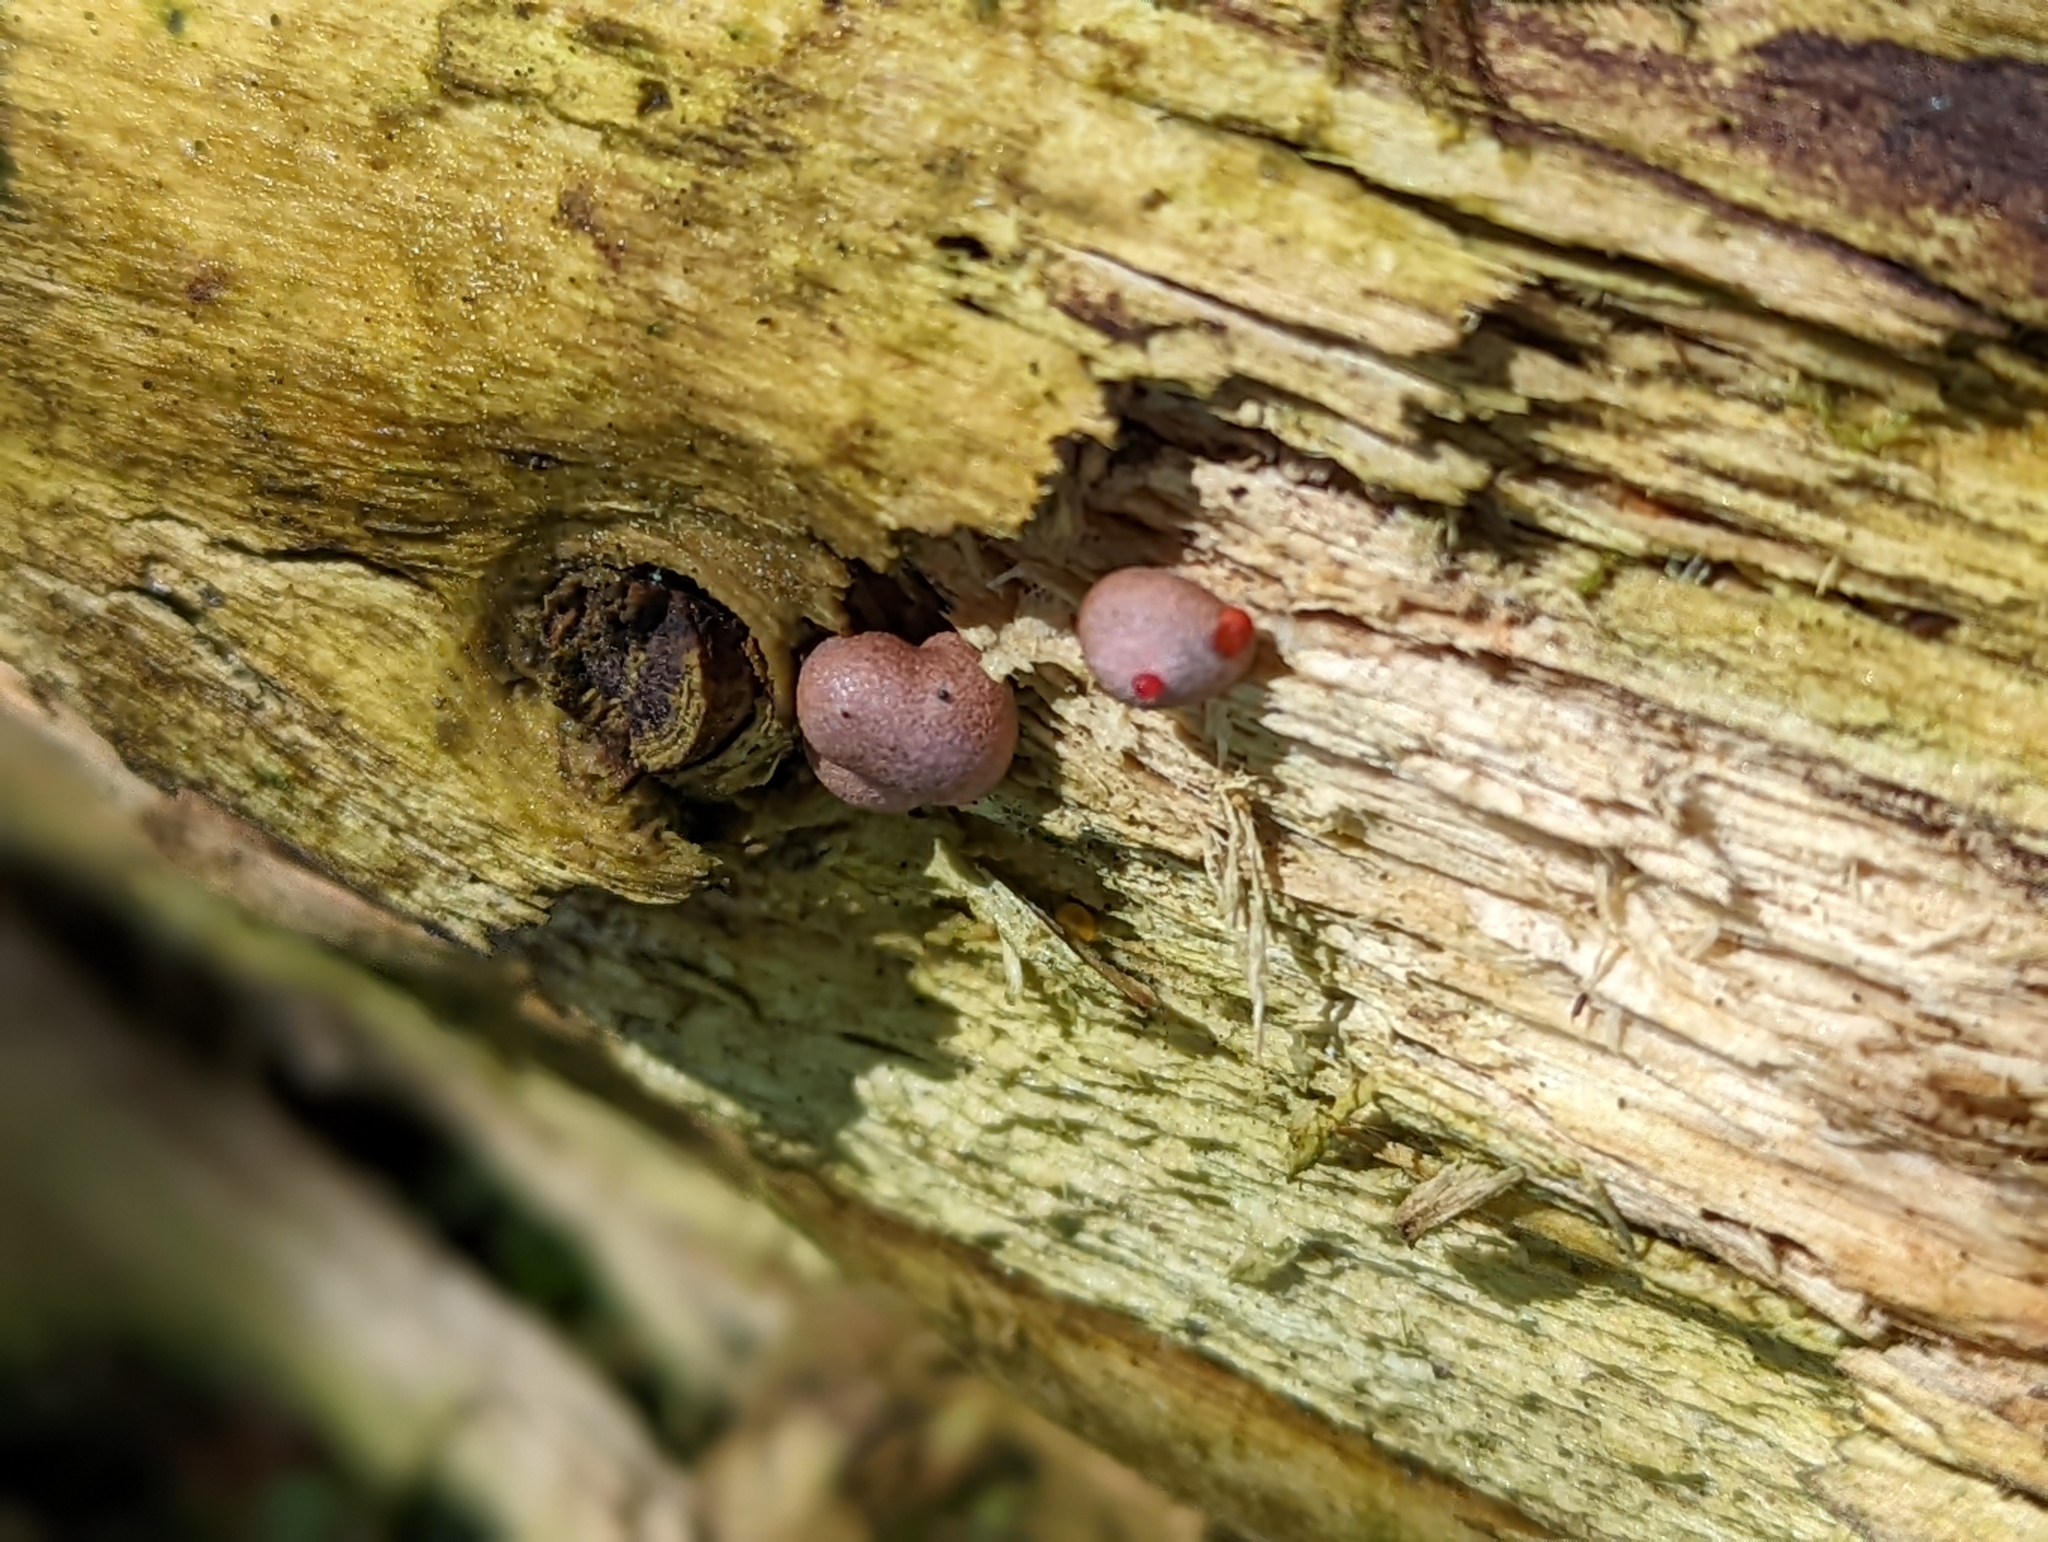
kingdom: Protozoa
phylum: Mycetozoa
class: Myxomycetes
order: Cribrariales
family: Tubiferaceae
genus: Lycogala
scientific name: Lycogala epidendrum
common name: Wolf's milk
